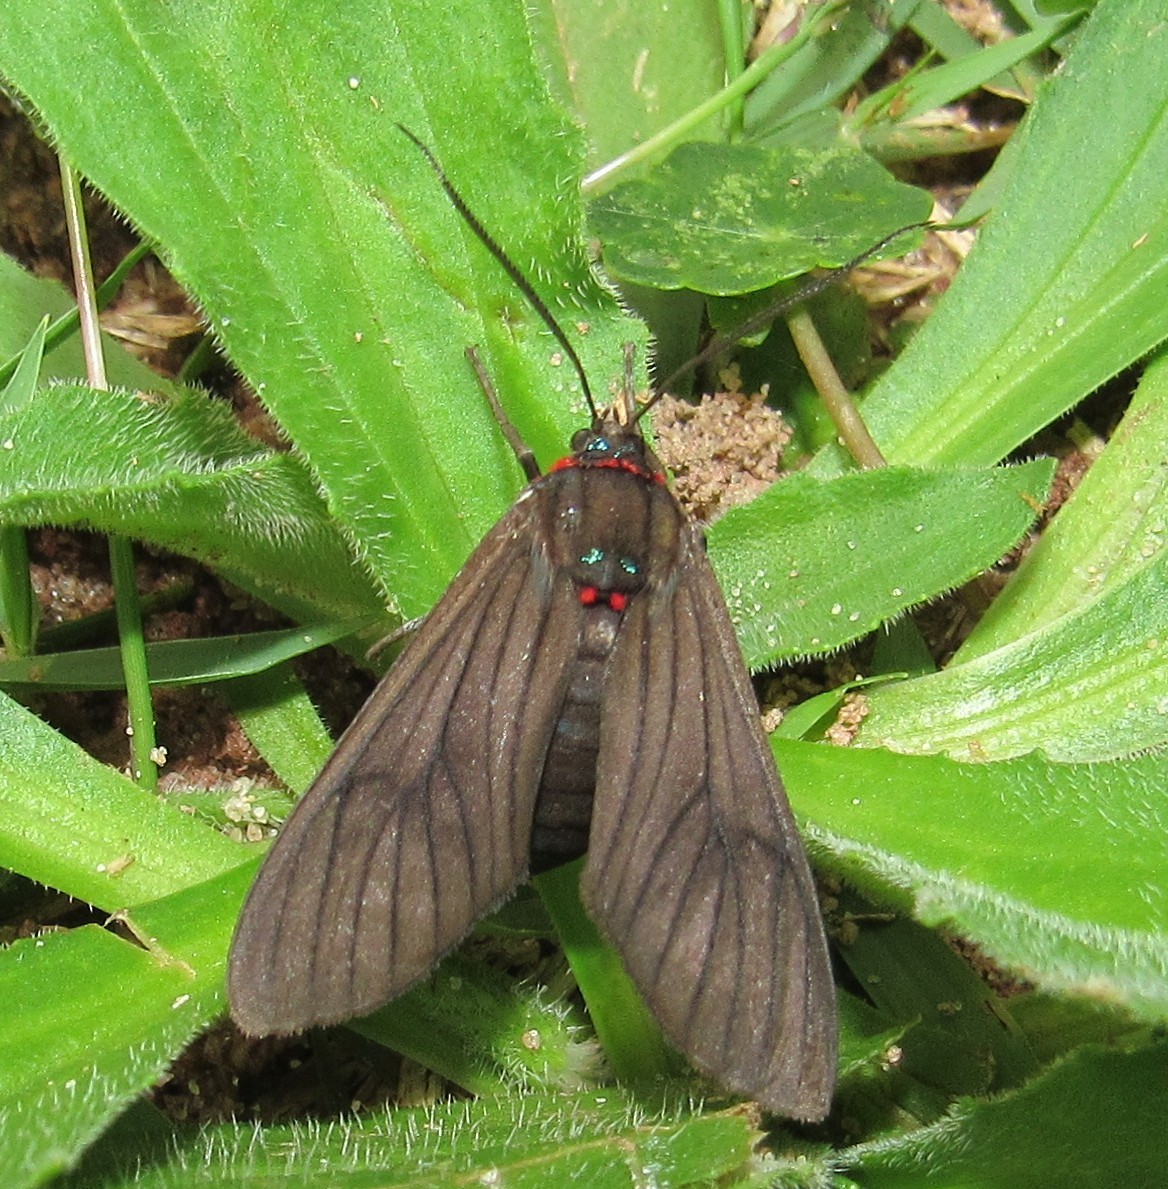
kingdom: Animalia
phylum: Arthropoda
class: Insecta
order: Lepidoptera
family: Erebidae
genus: Saurita
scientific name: Saurita cassandra
